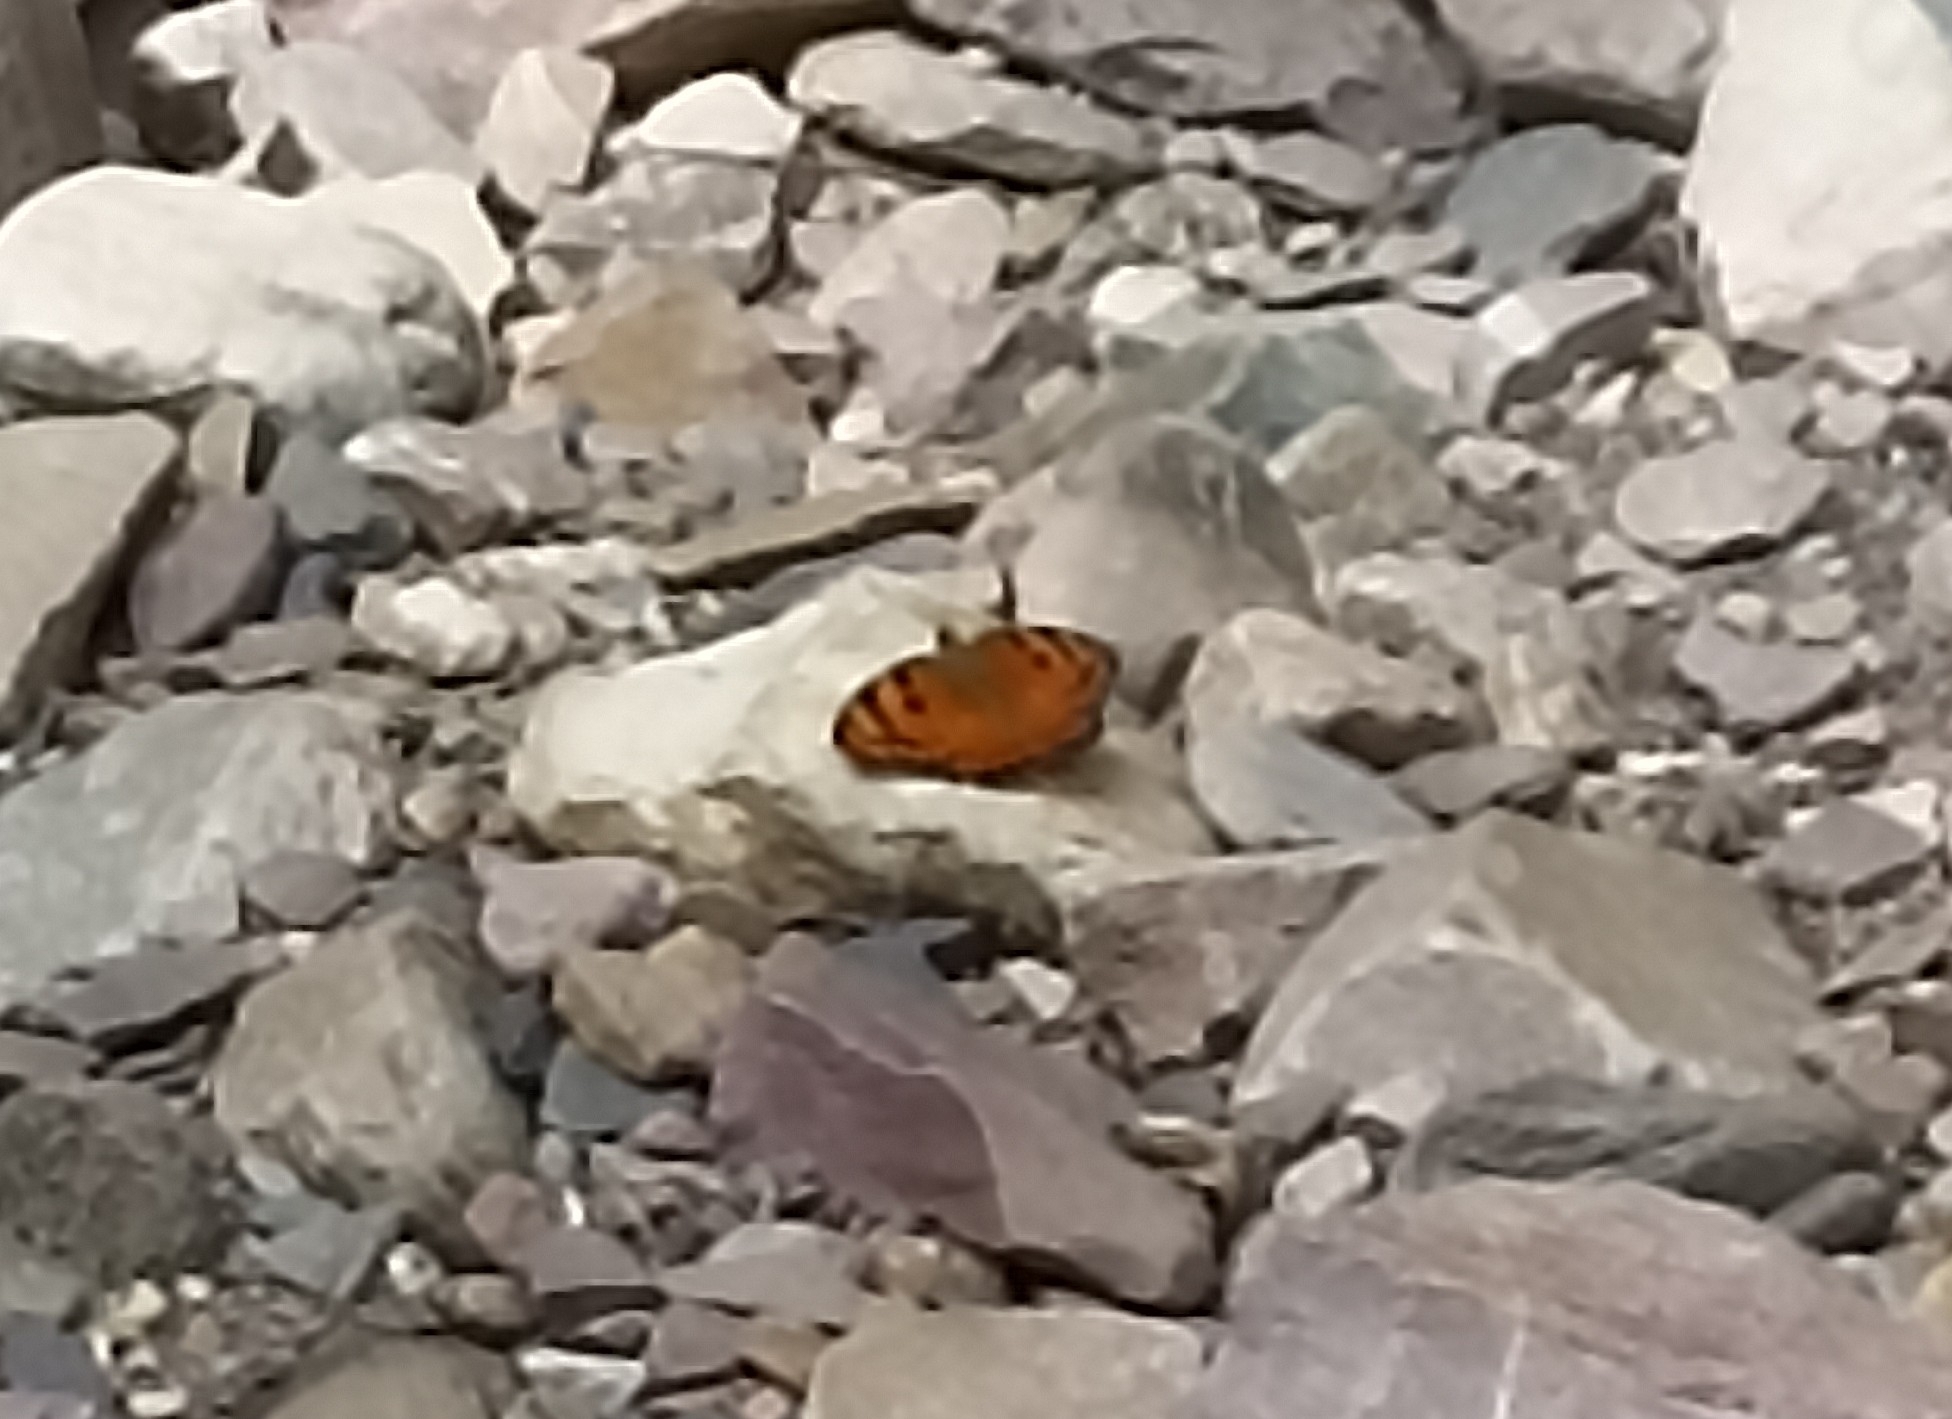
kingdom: Animalia
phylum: Arthropoda
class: Insecta
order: Lepidoptera
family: Nymphalidae
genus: Euthalia
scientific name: Euthalia nais
